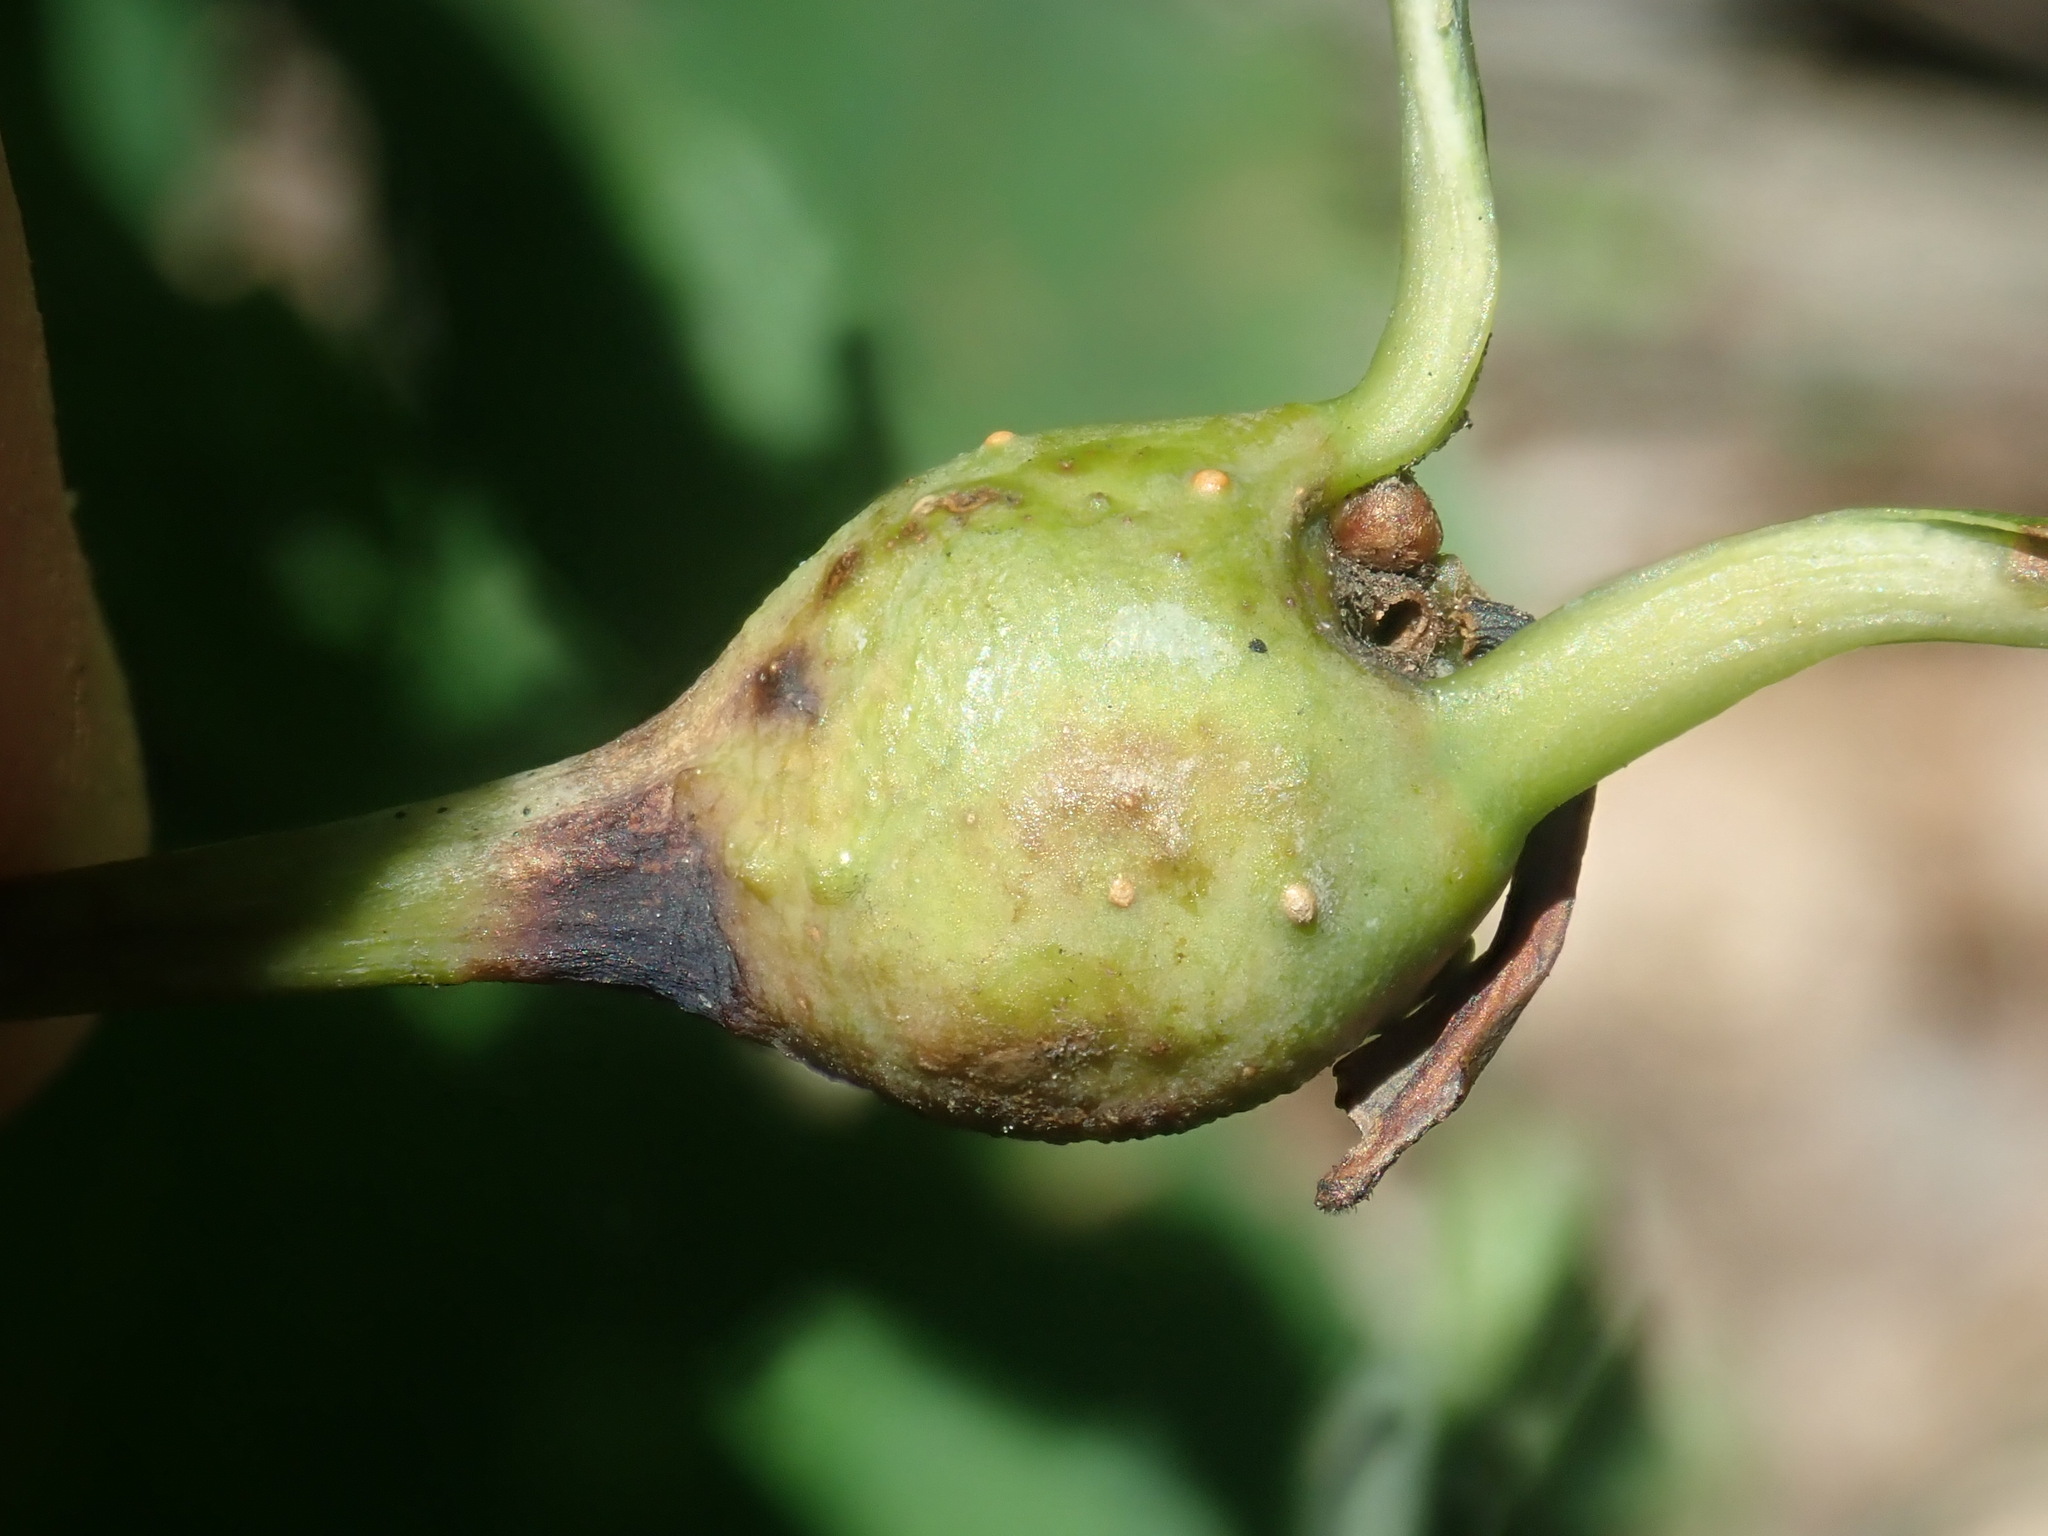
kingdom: Animalia
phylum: Arthropoda
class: Insecta
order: Hymenoptera
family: Cynipidae
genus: Callirhytis
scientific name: Callirhytis clavula
